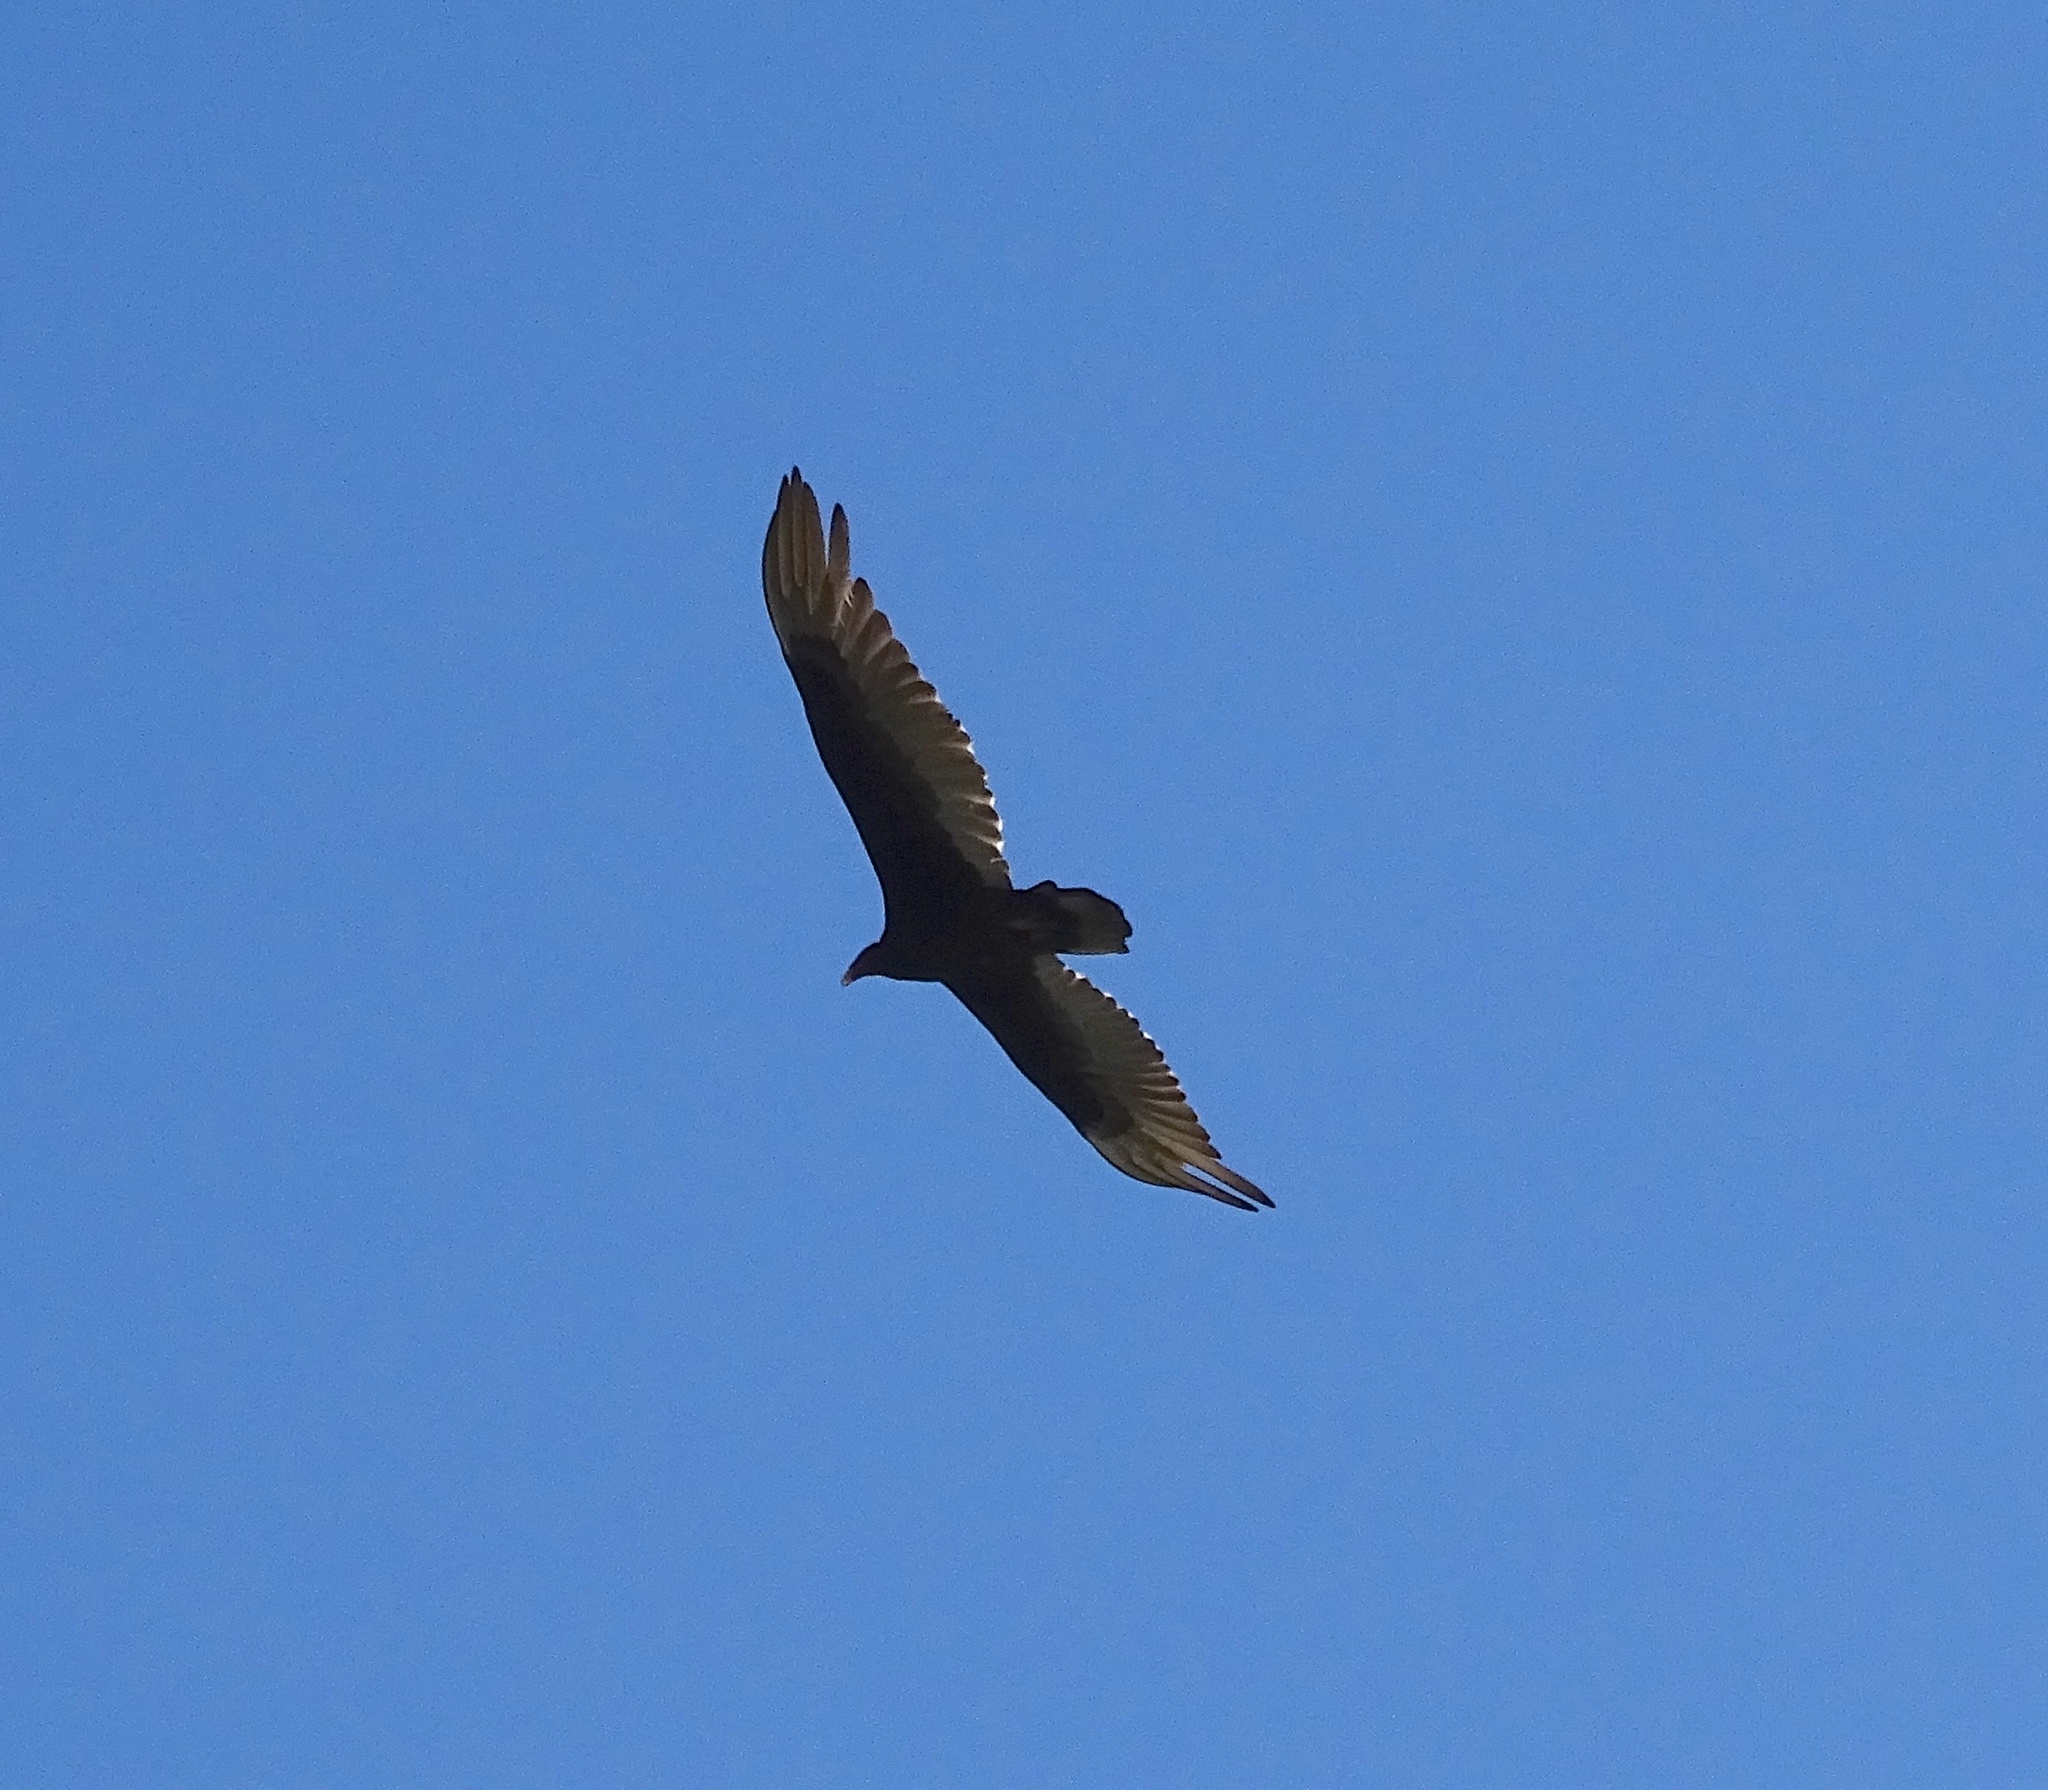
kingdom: Animalia
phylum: Chordata
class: Aves
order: Accipitriformes
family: Cathartidae
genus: Cathartes
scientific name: Cathartes aura
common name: Turkey vulture
